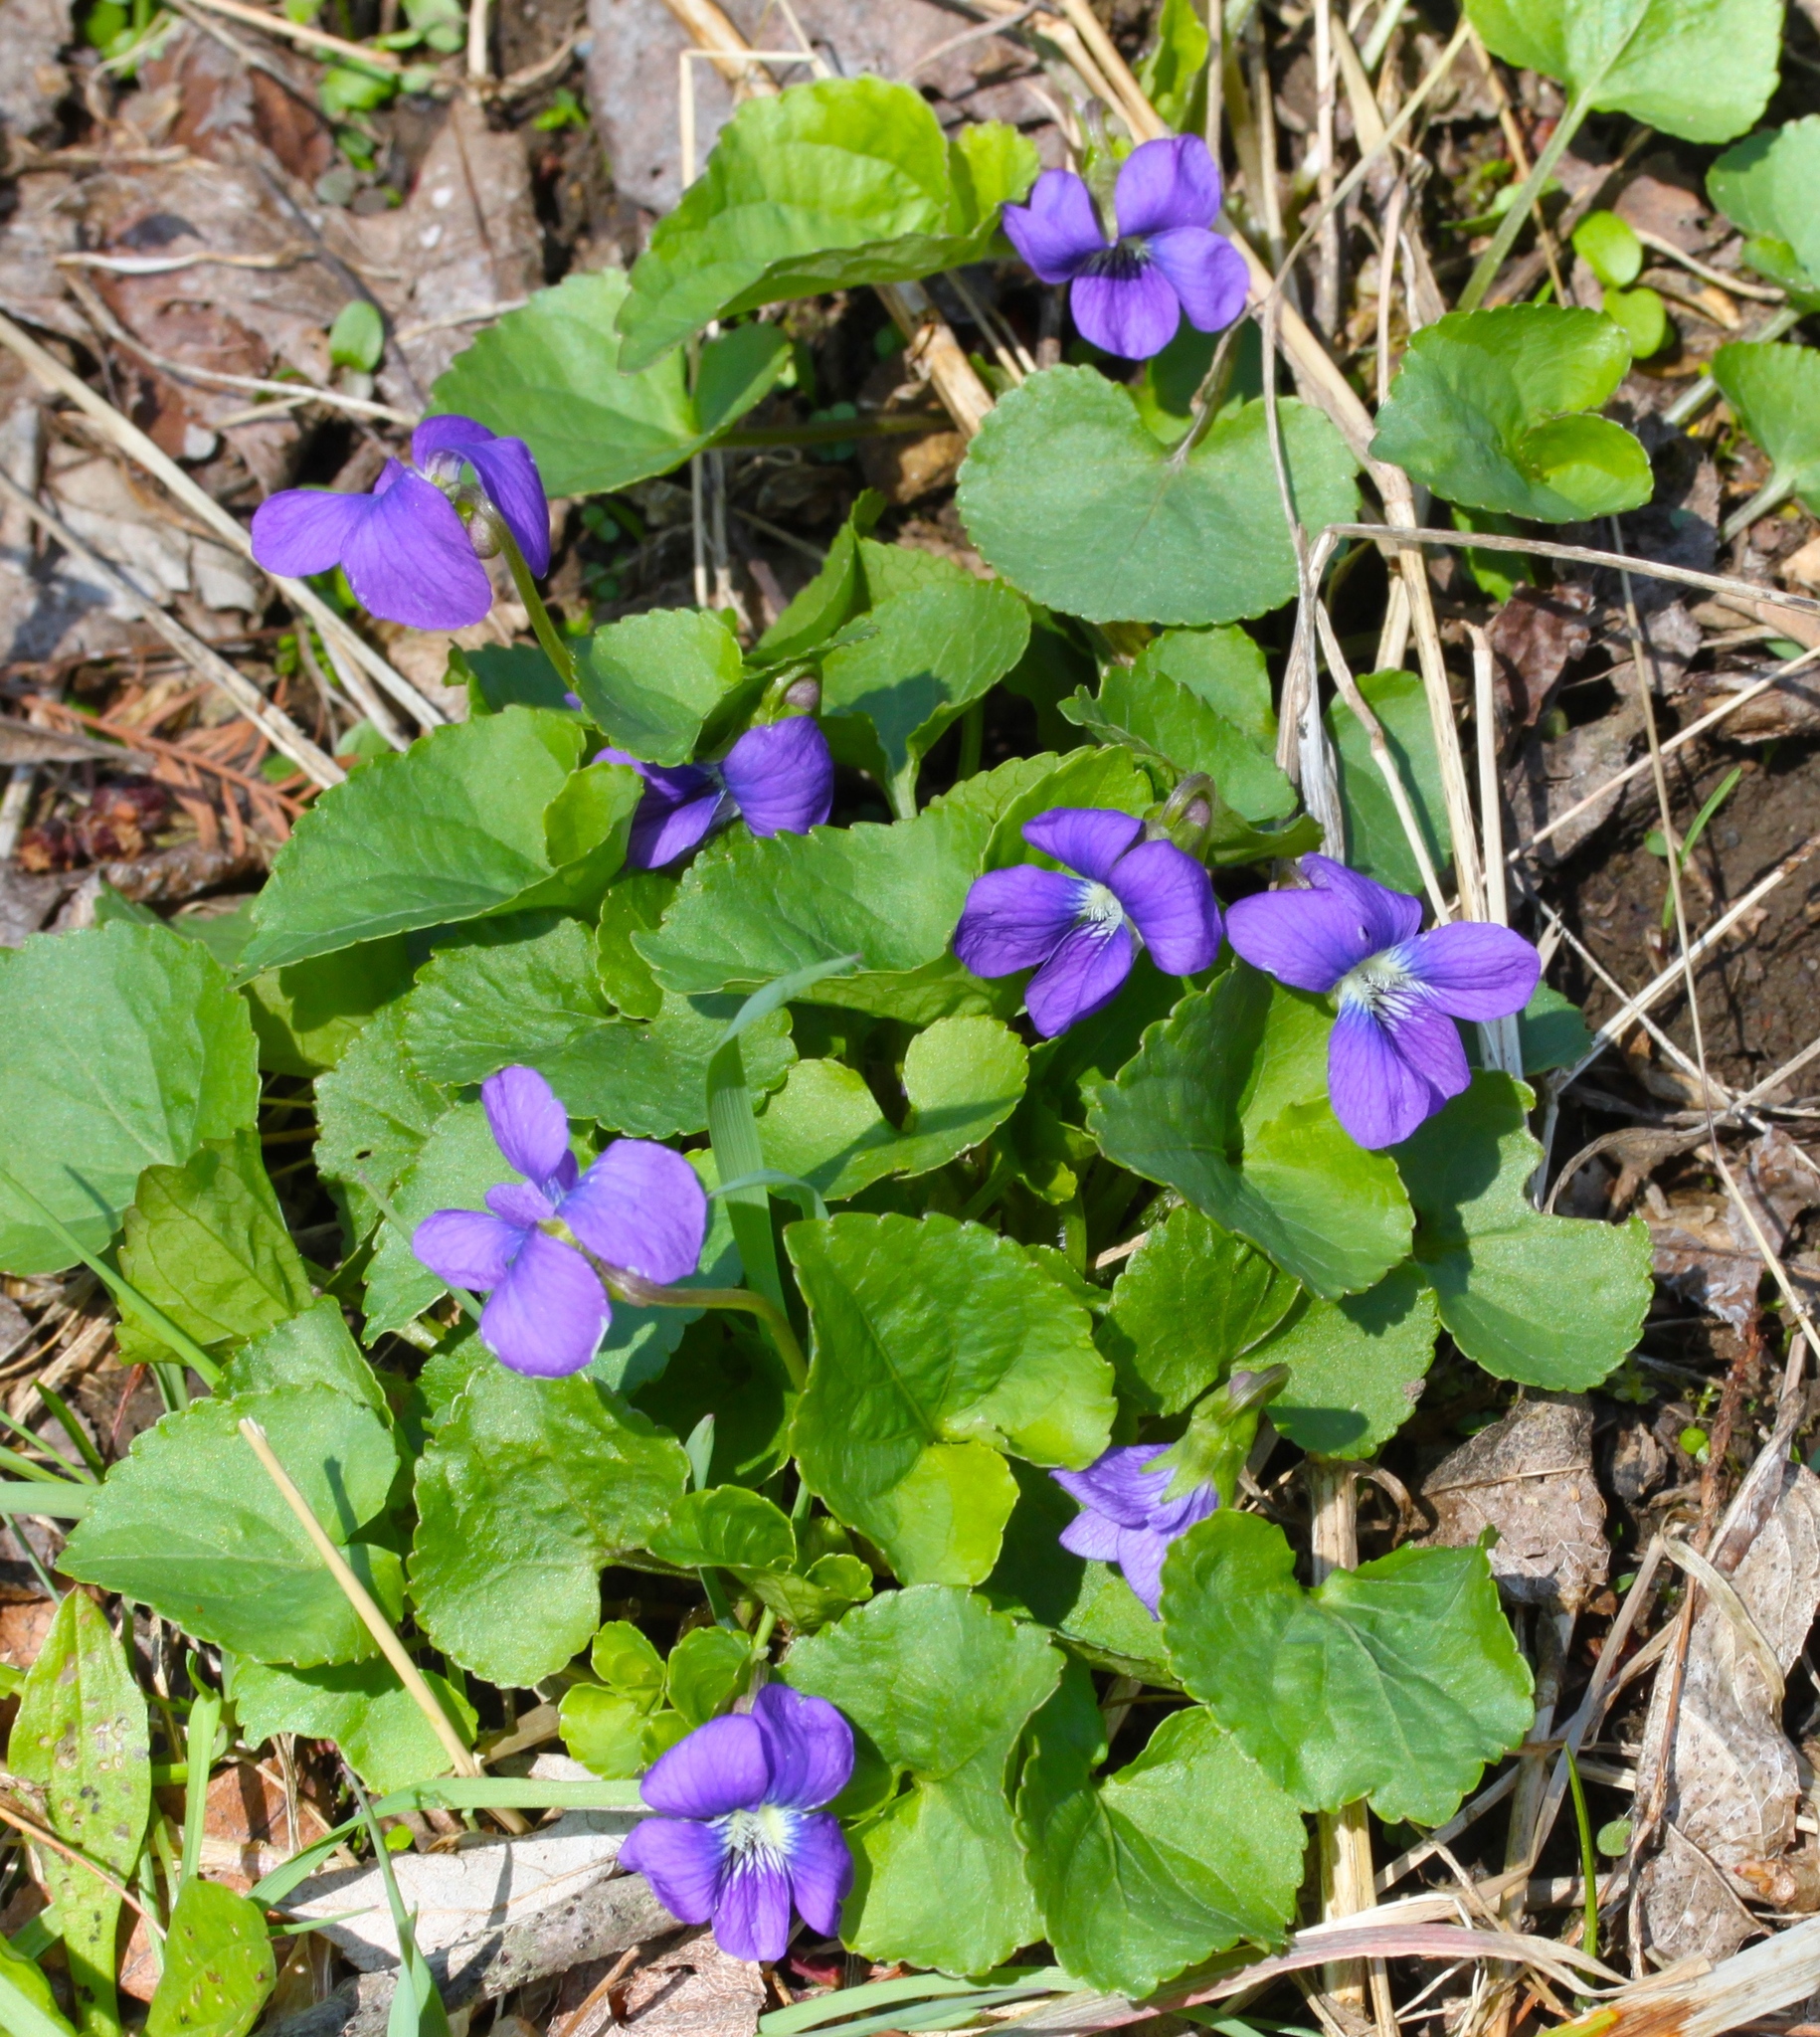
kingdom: Plantae
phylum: Tracheophyta
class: Magnoliopsida
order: Malpighiales
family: Violaceae
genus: Viola
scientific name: Viola sororia
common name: Dooryard violet
